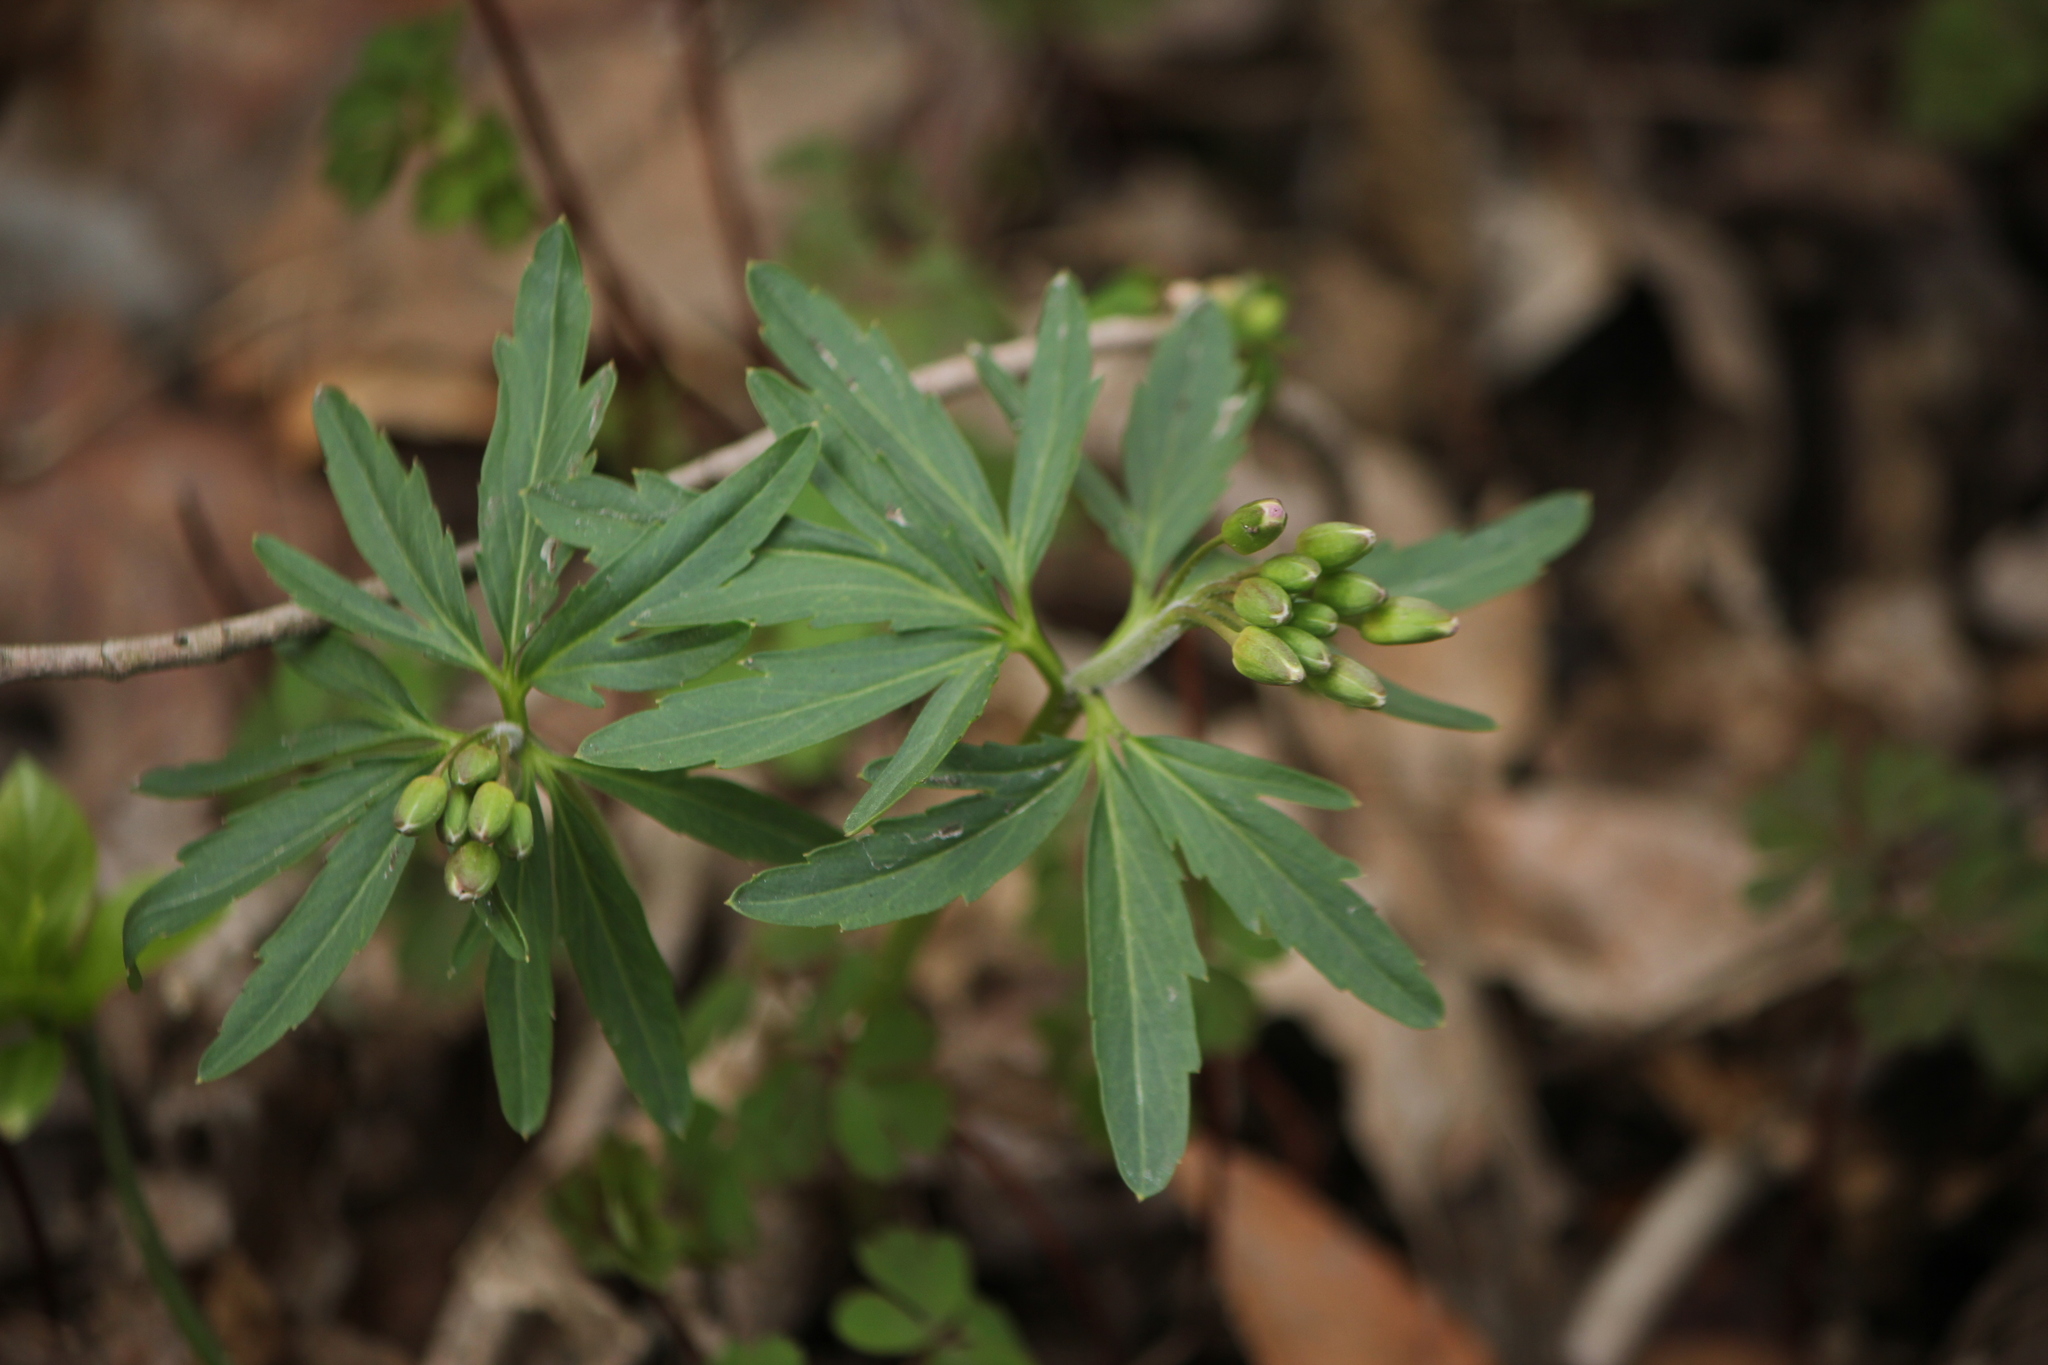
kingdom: Plantae
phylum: Tracheophyta
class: Magnoliopsida
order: Brassicales
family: Brassicaceae
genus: Cardamine
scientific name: Cardamine concatenata
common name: Cut-leaf toothcup
